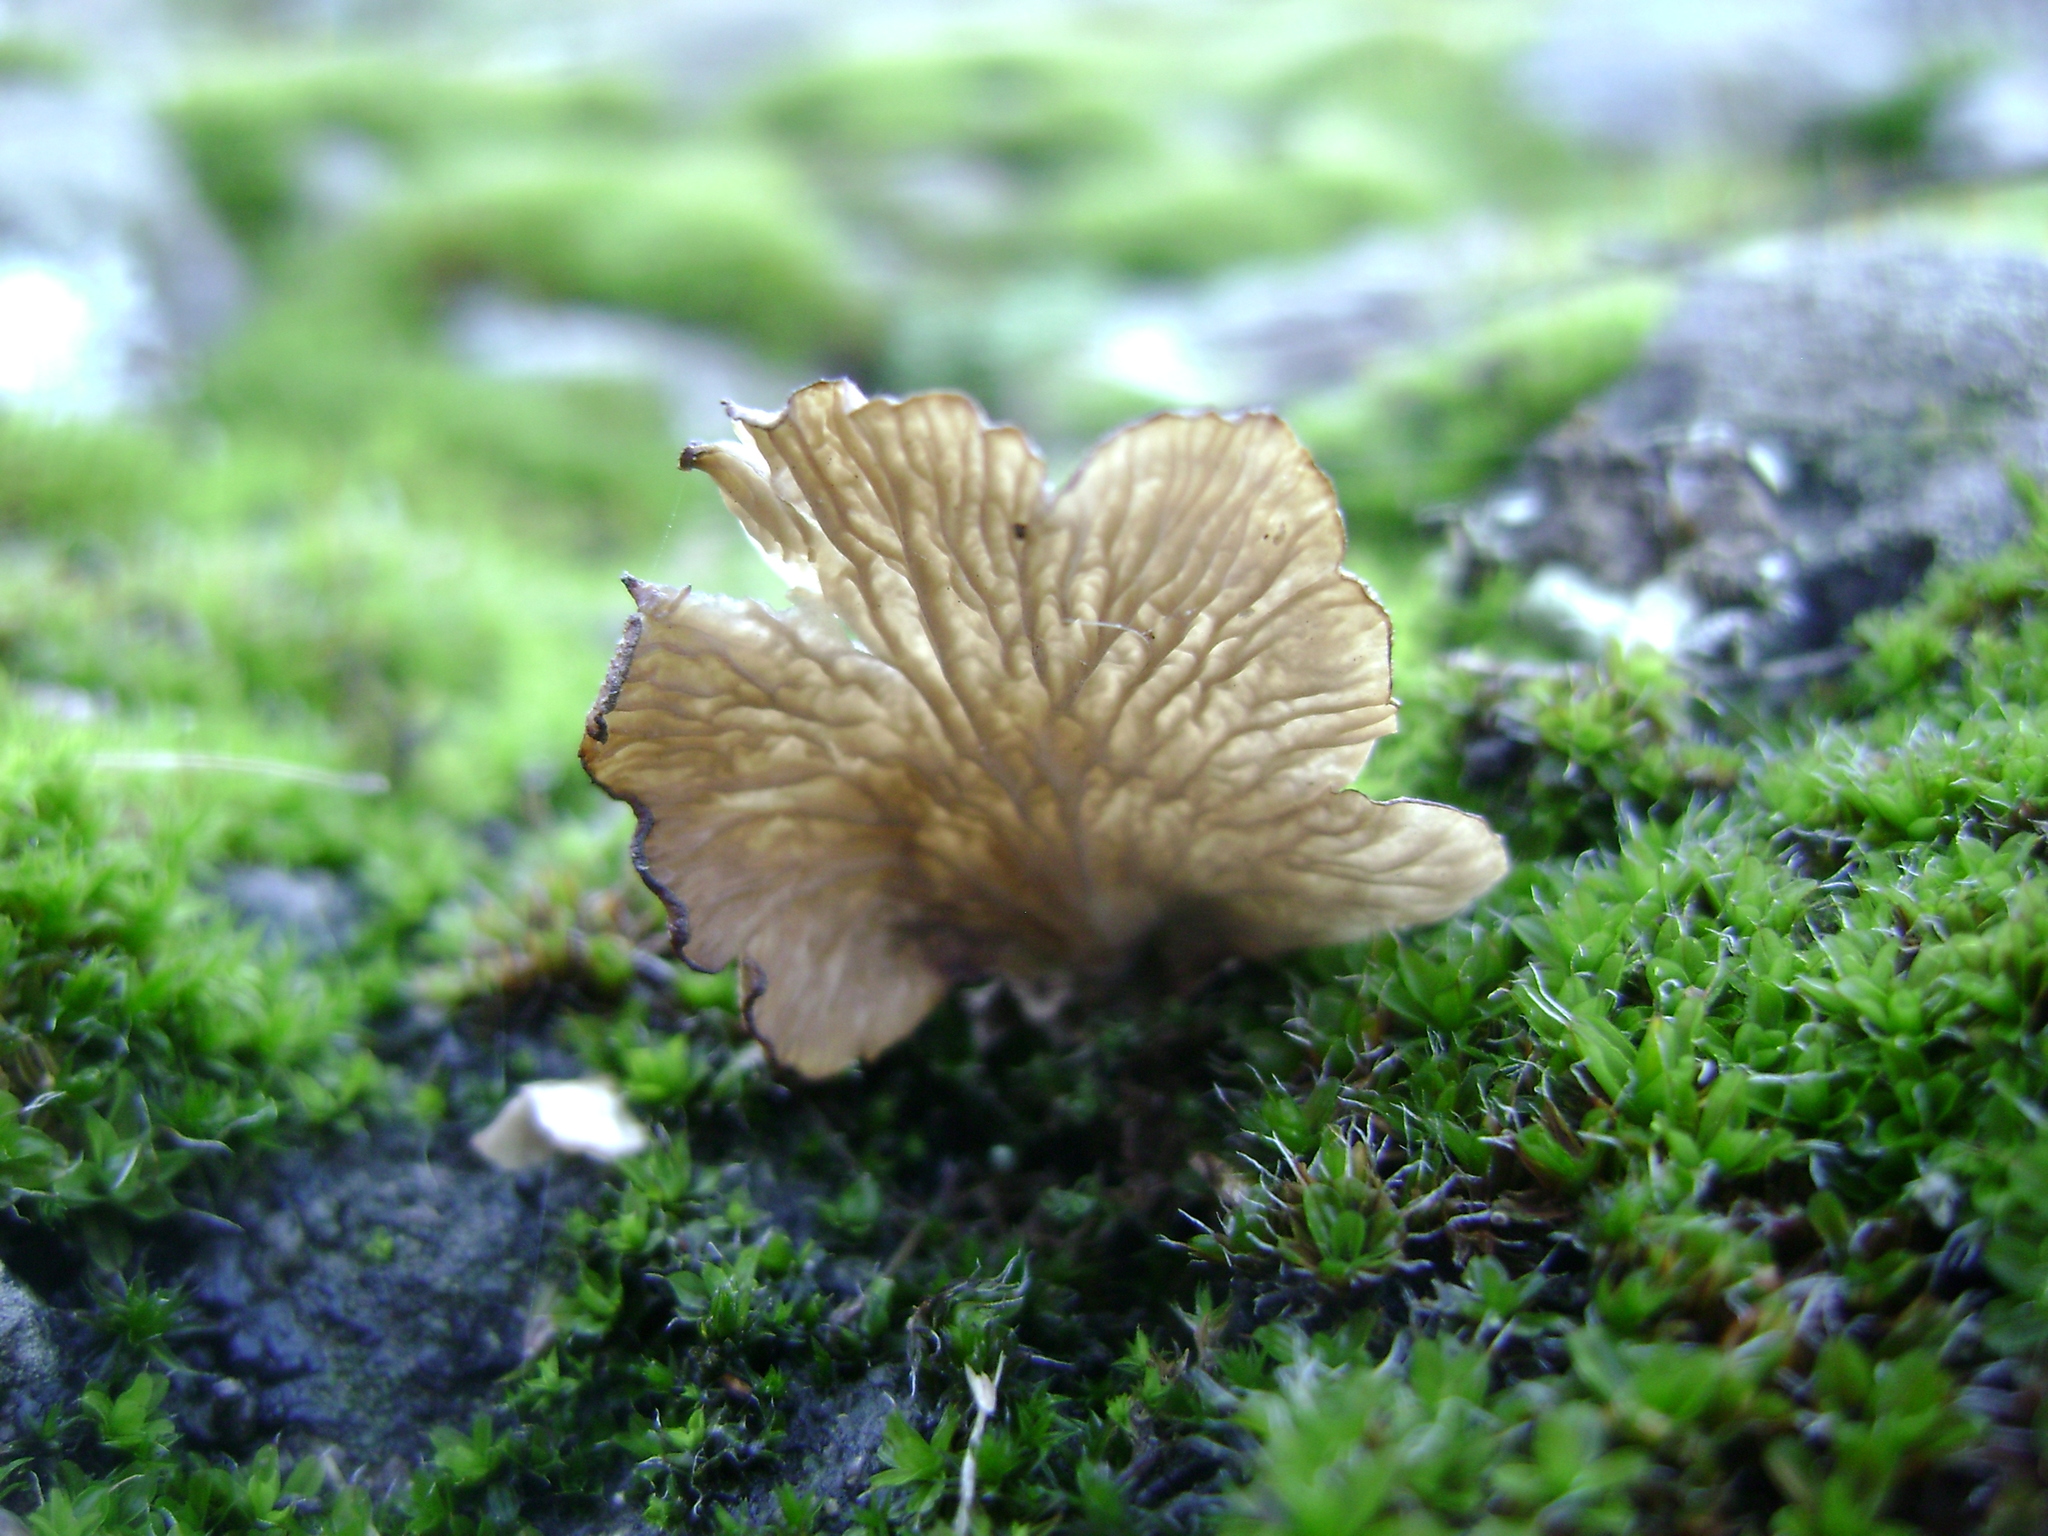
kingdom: Fungi
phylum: Basidiomycota
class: Agaricomycetes
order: Agaricales
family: Hygrophoraceae
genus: Arrhenia
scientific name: Arrhenia spathulata
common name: Spatulate oysterling
